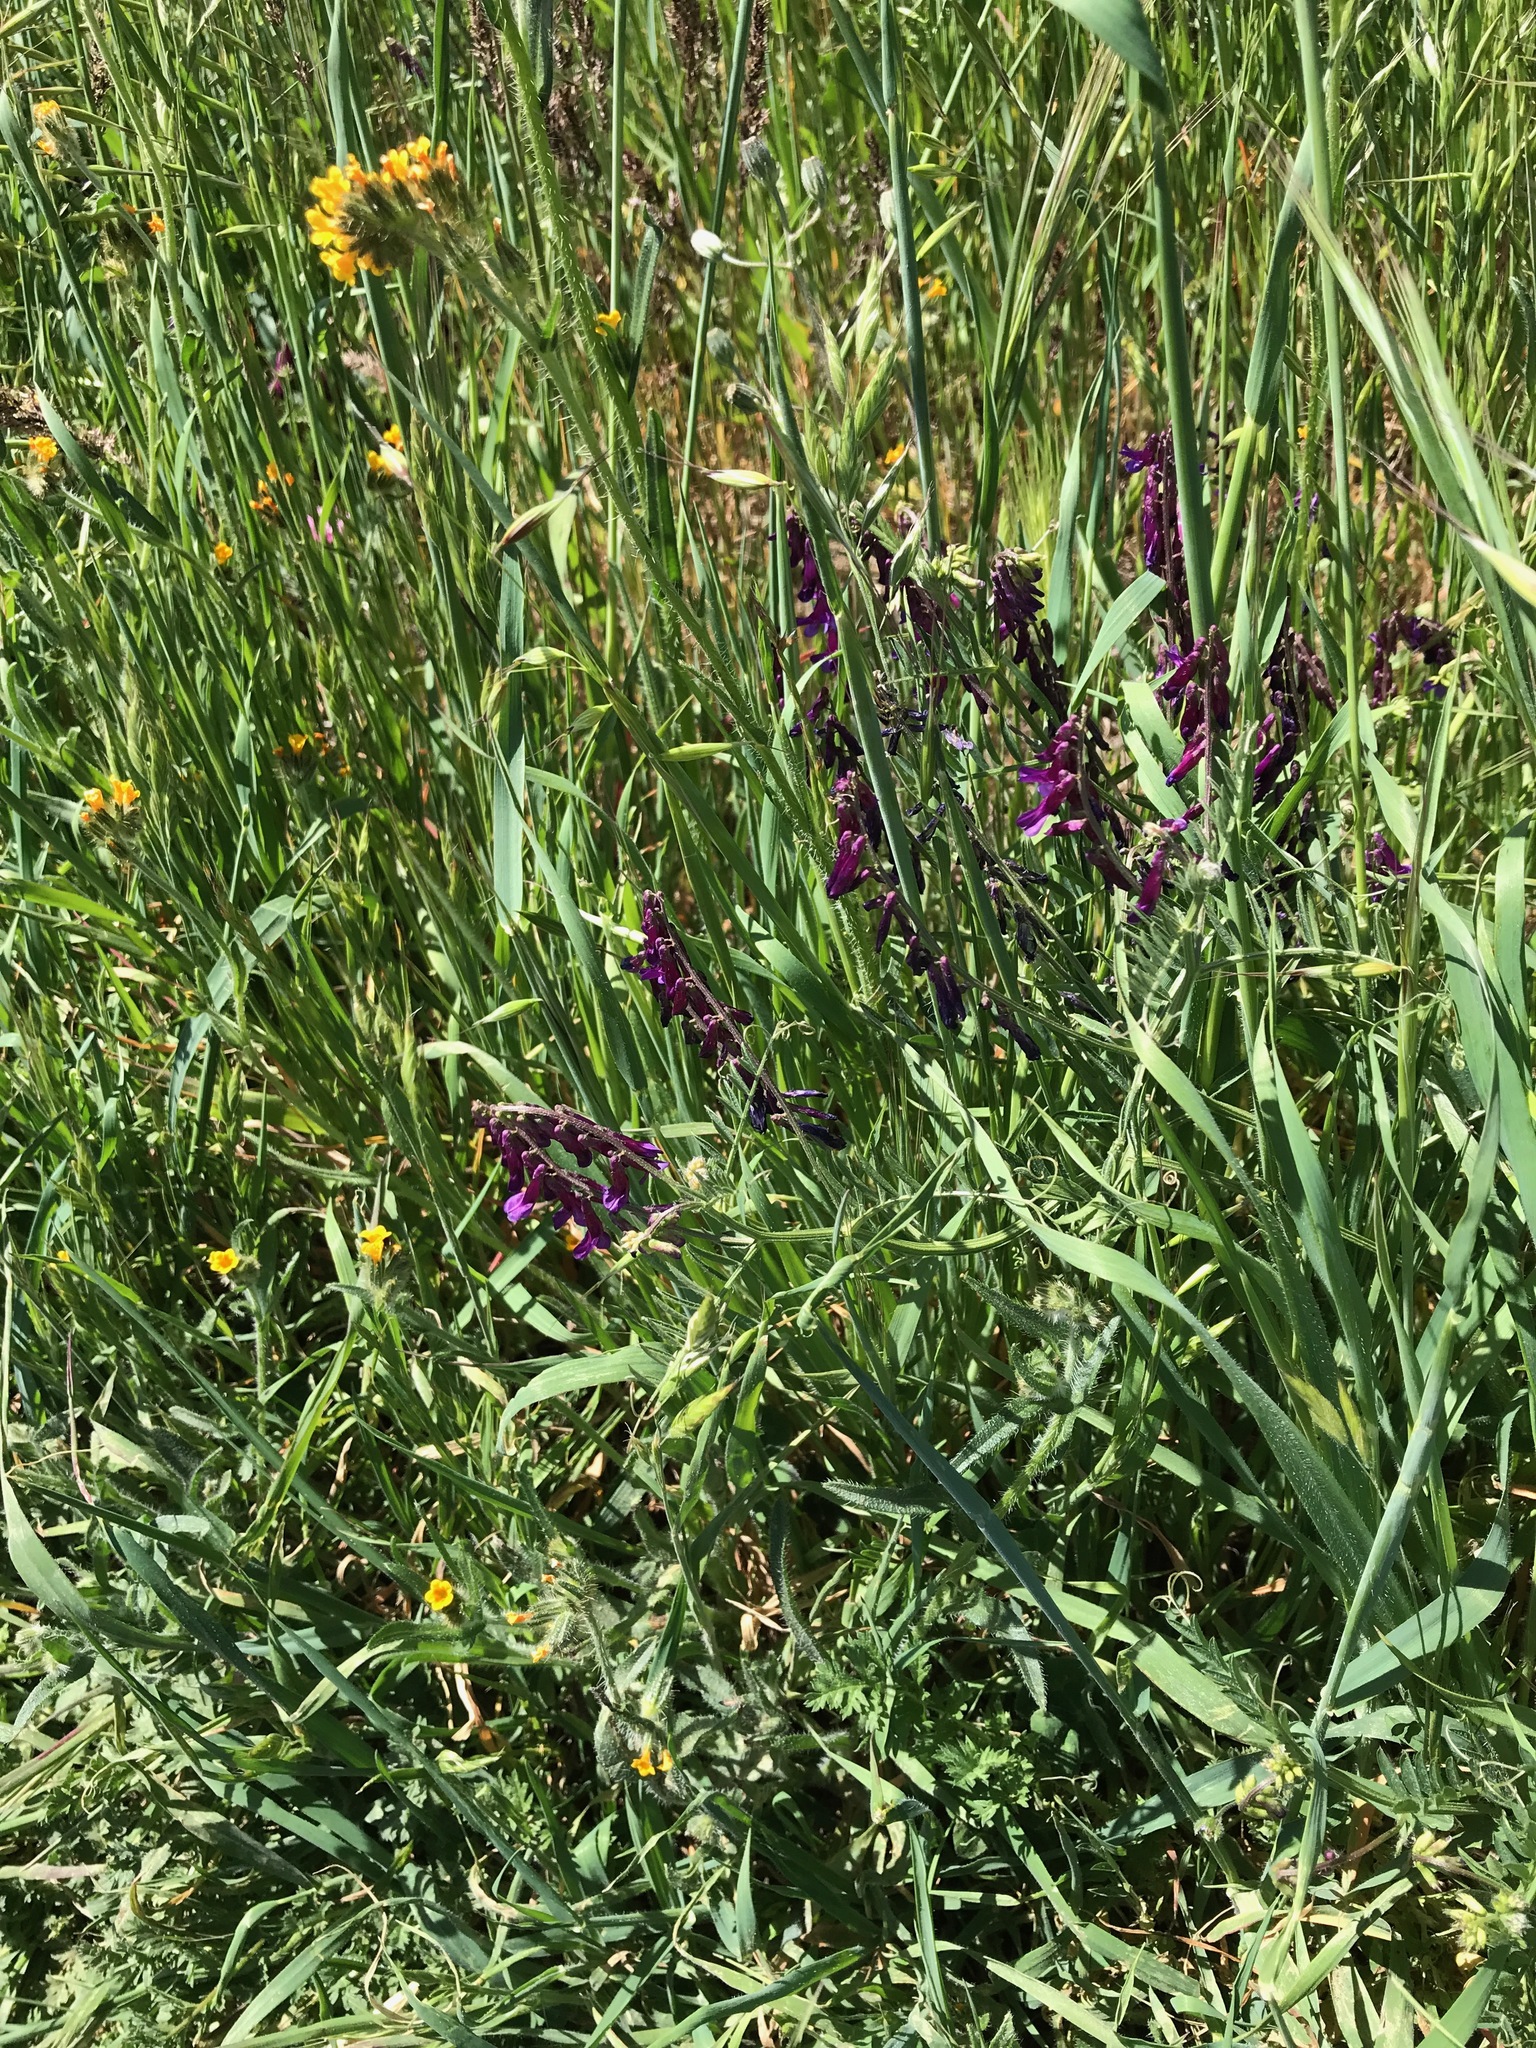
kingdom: Plantae
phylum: Tracheophyta
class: Magnoliopsida
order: Fabales
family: Fabaceae
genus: Vicia
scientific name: Vicia villosa
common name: Fodder vetch
